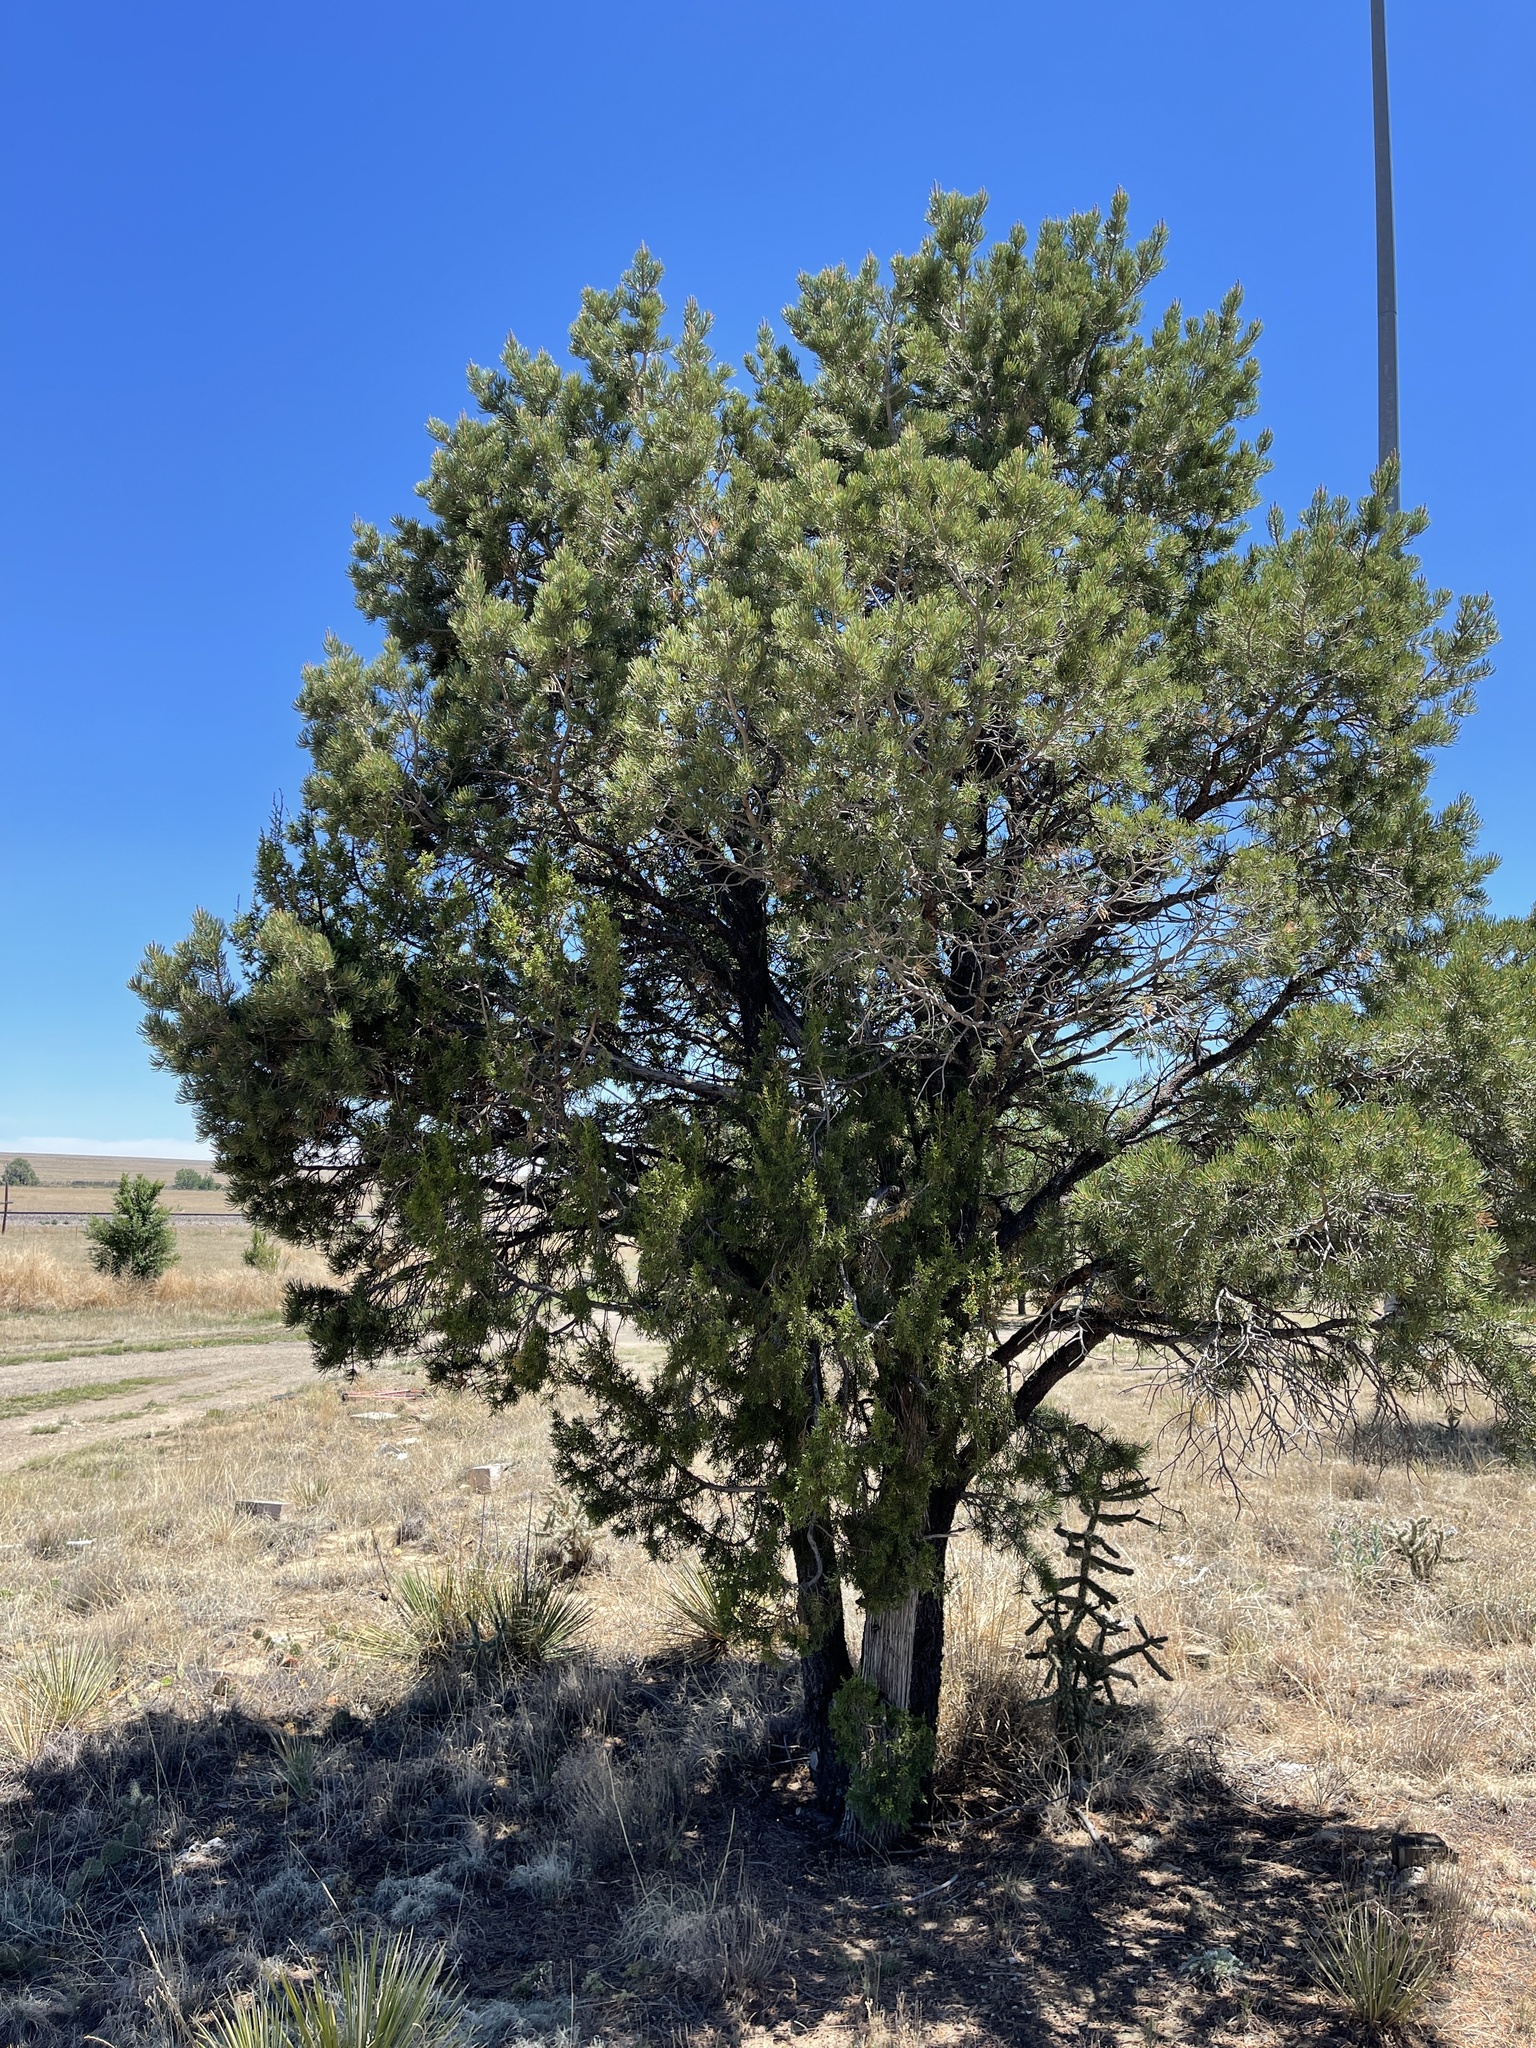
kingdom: Plantae
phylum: Tracheophyta
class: Pinopsida
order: Pinales
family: Cupressaceae
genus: Juniperus
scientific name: Juniperus scopulorum
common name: Rocky mountain juniper
